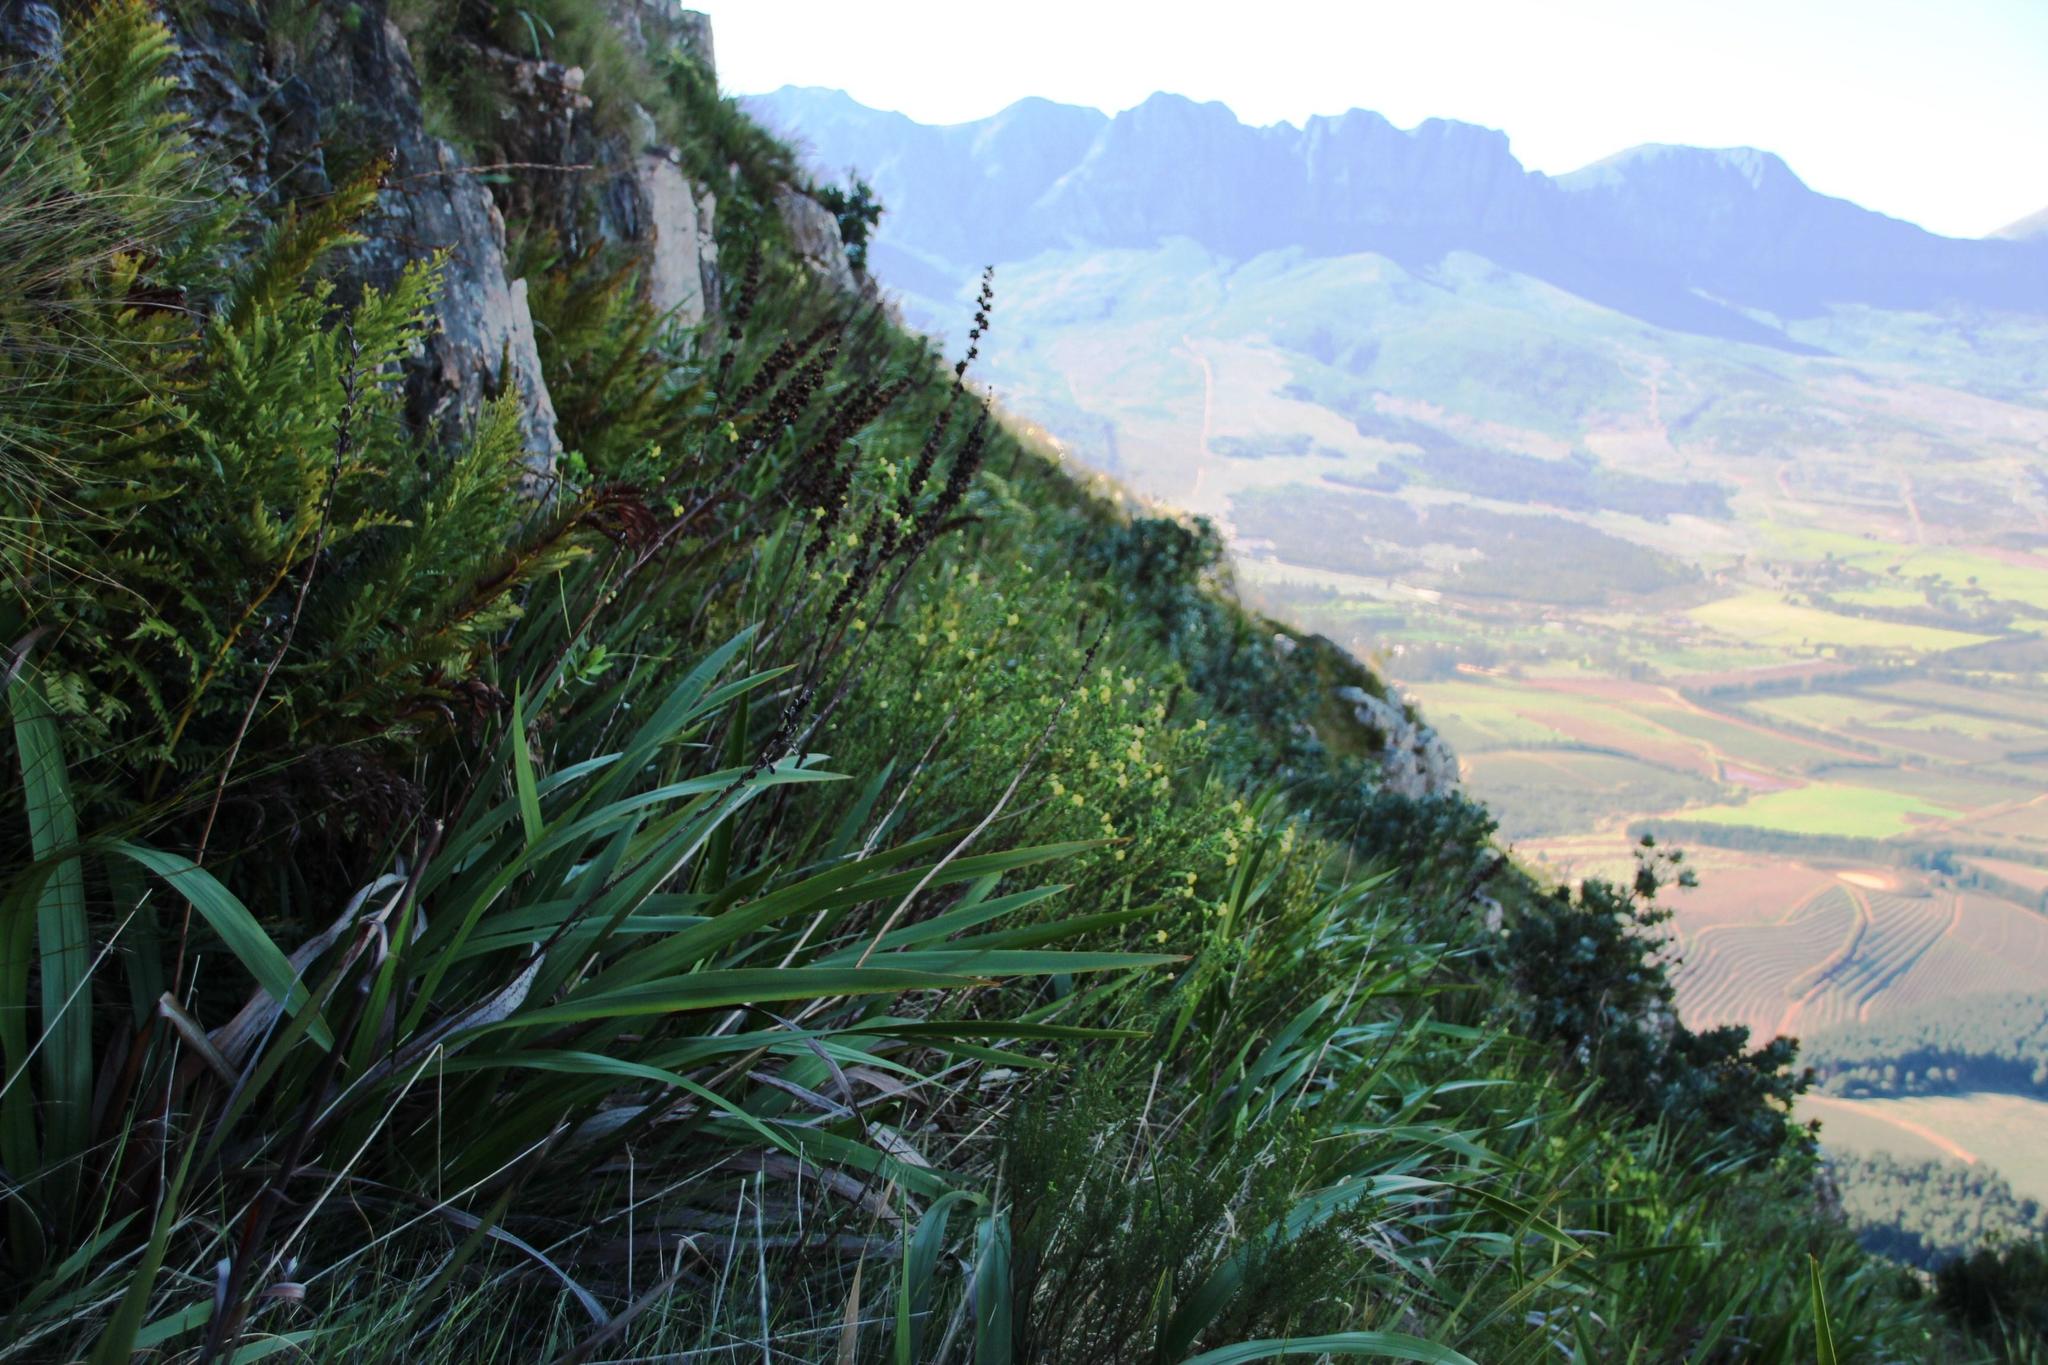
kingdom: Plantae
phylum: Tracheophyta
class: Magnoliopsida
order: Malvales
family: Thymelaeaceae
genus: Gnidia
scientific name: Gnidia oppositifolia
